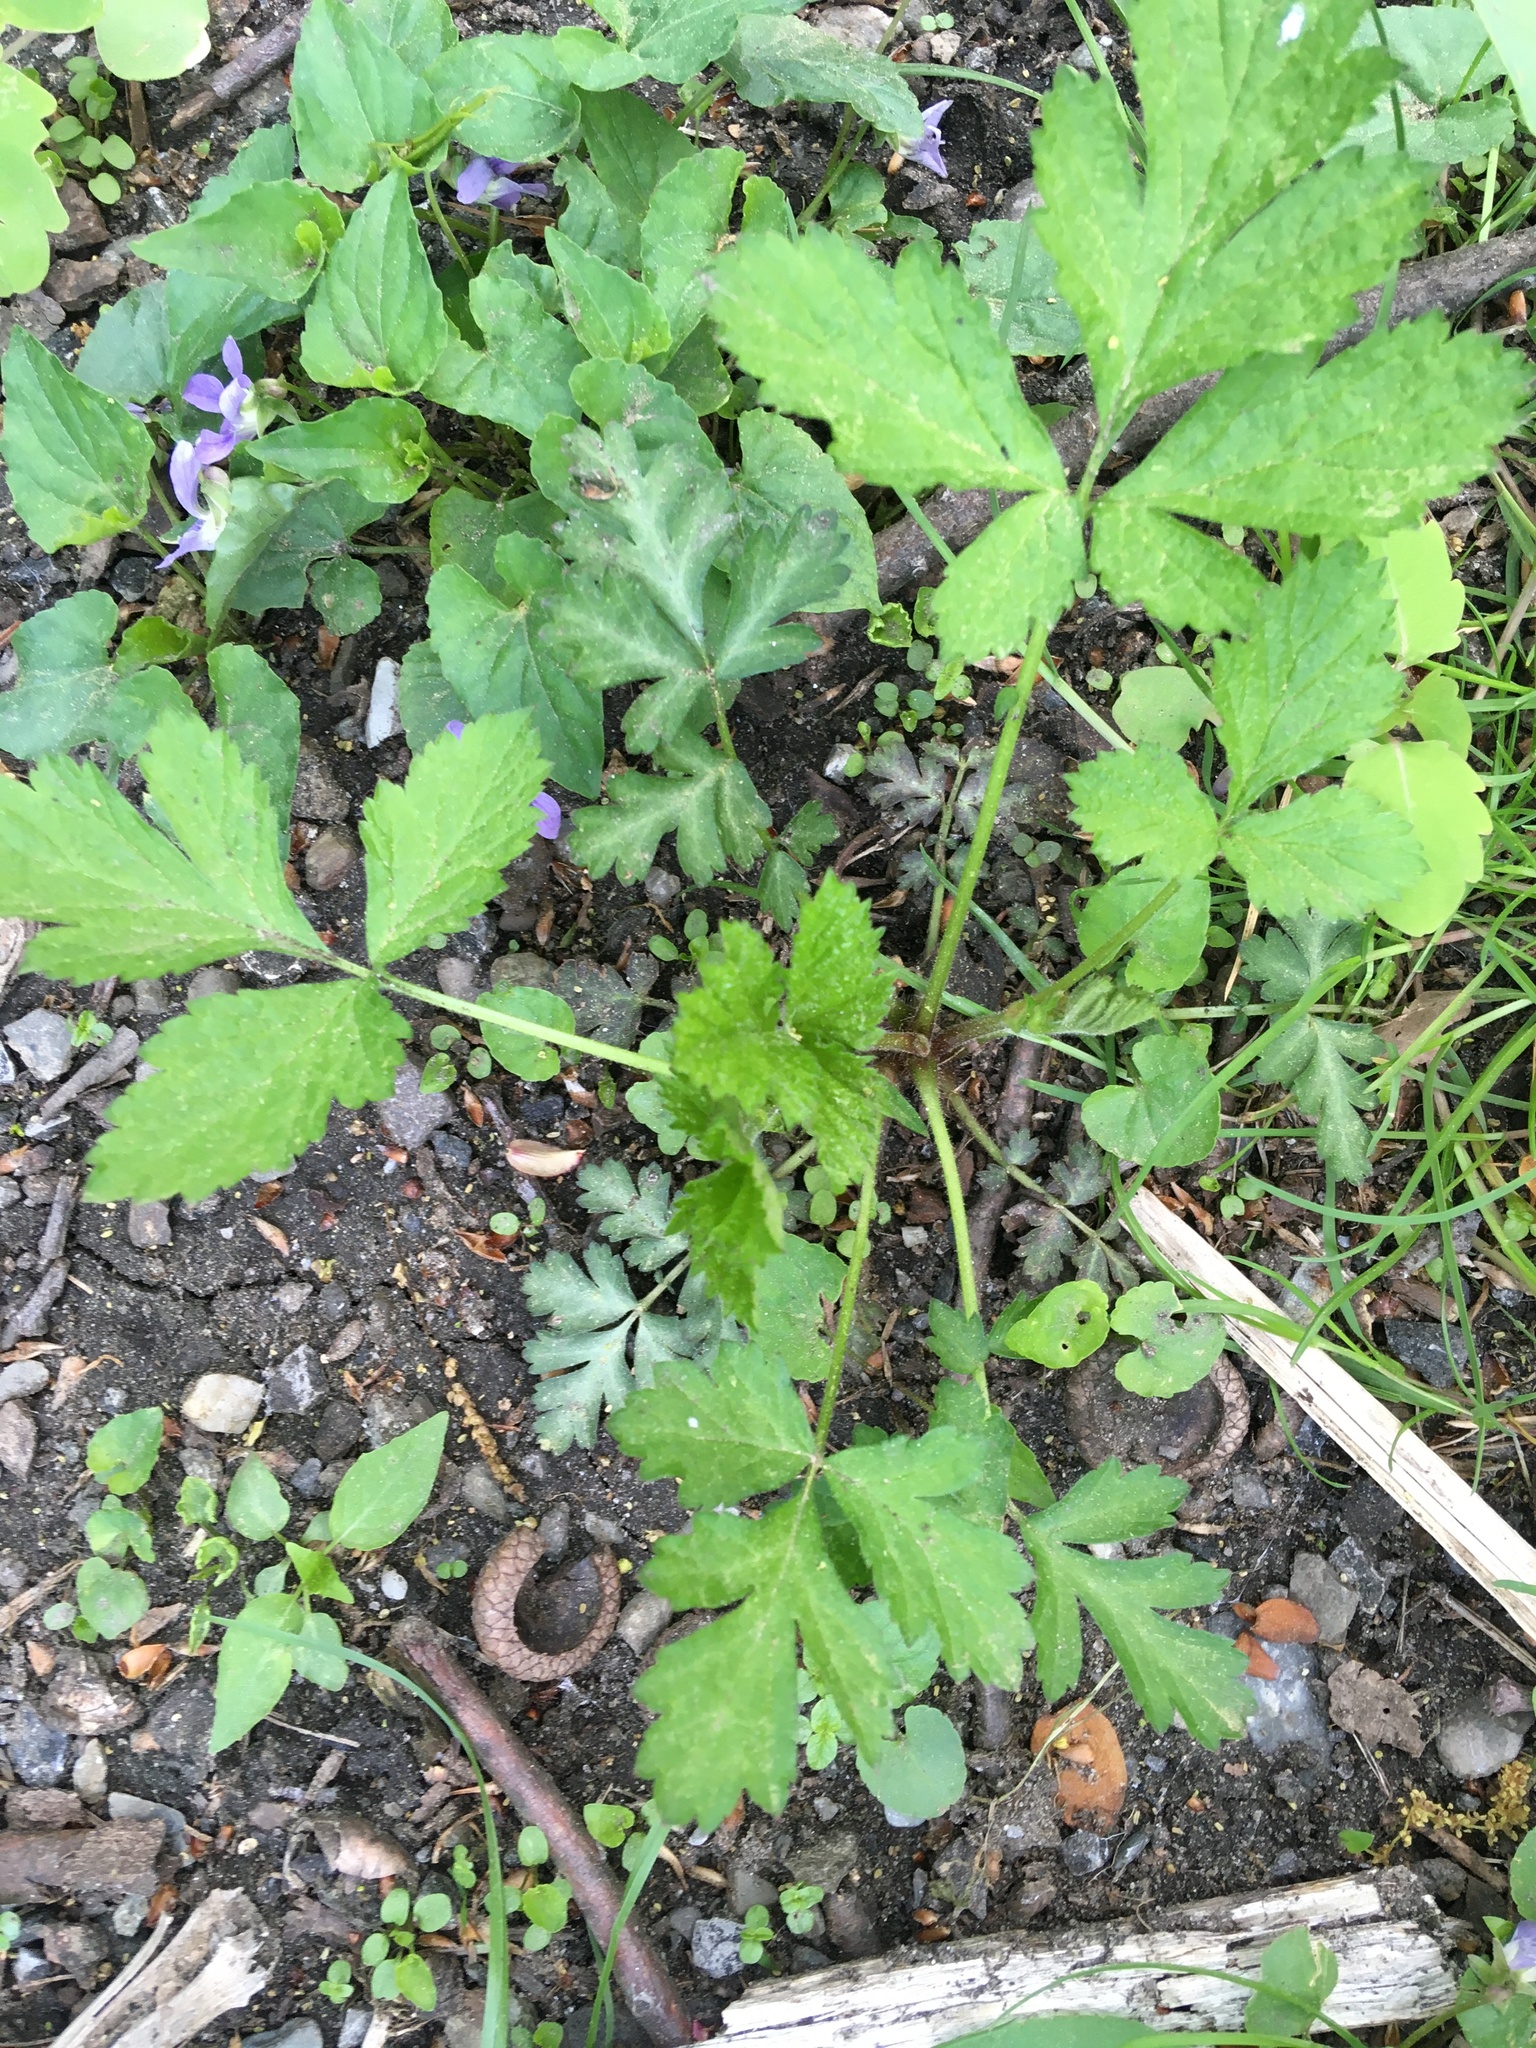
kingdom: Plantae
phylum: Tracheophyta
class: Magnoliopsida
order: Rosales
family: Rosaceae
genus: Geum
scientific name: Geum canadense
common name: White avens
